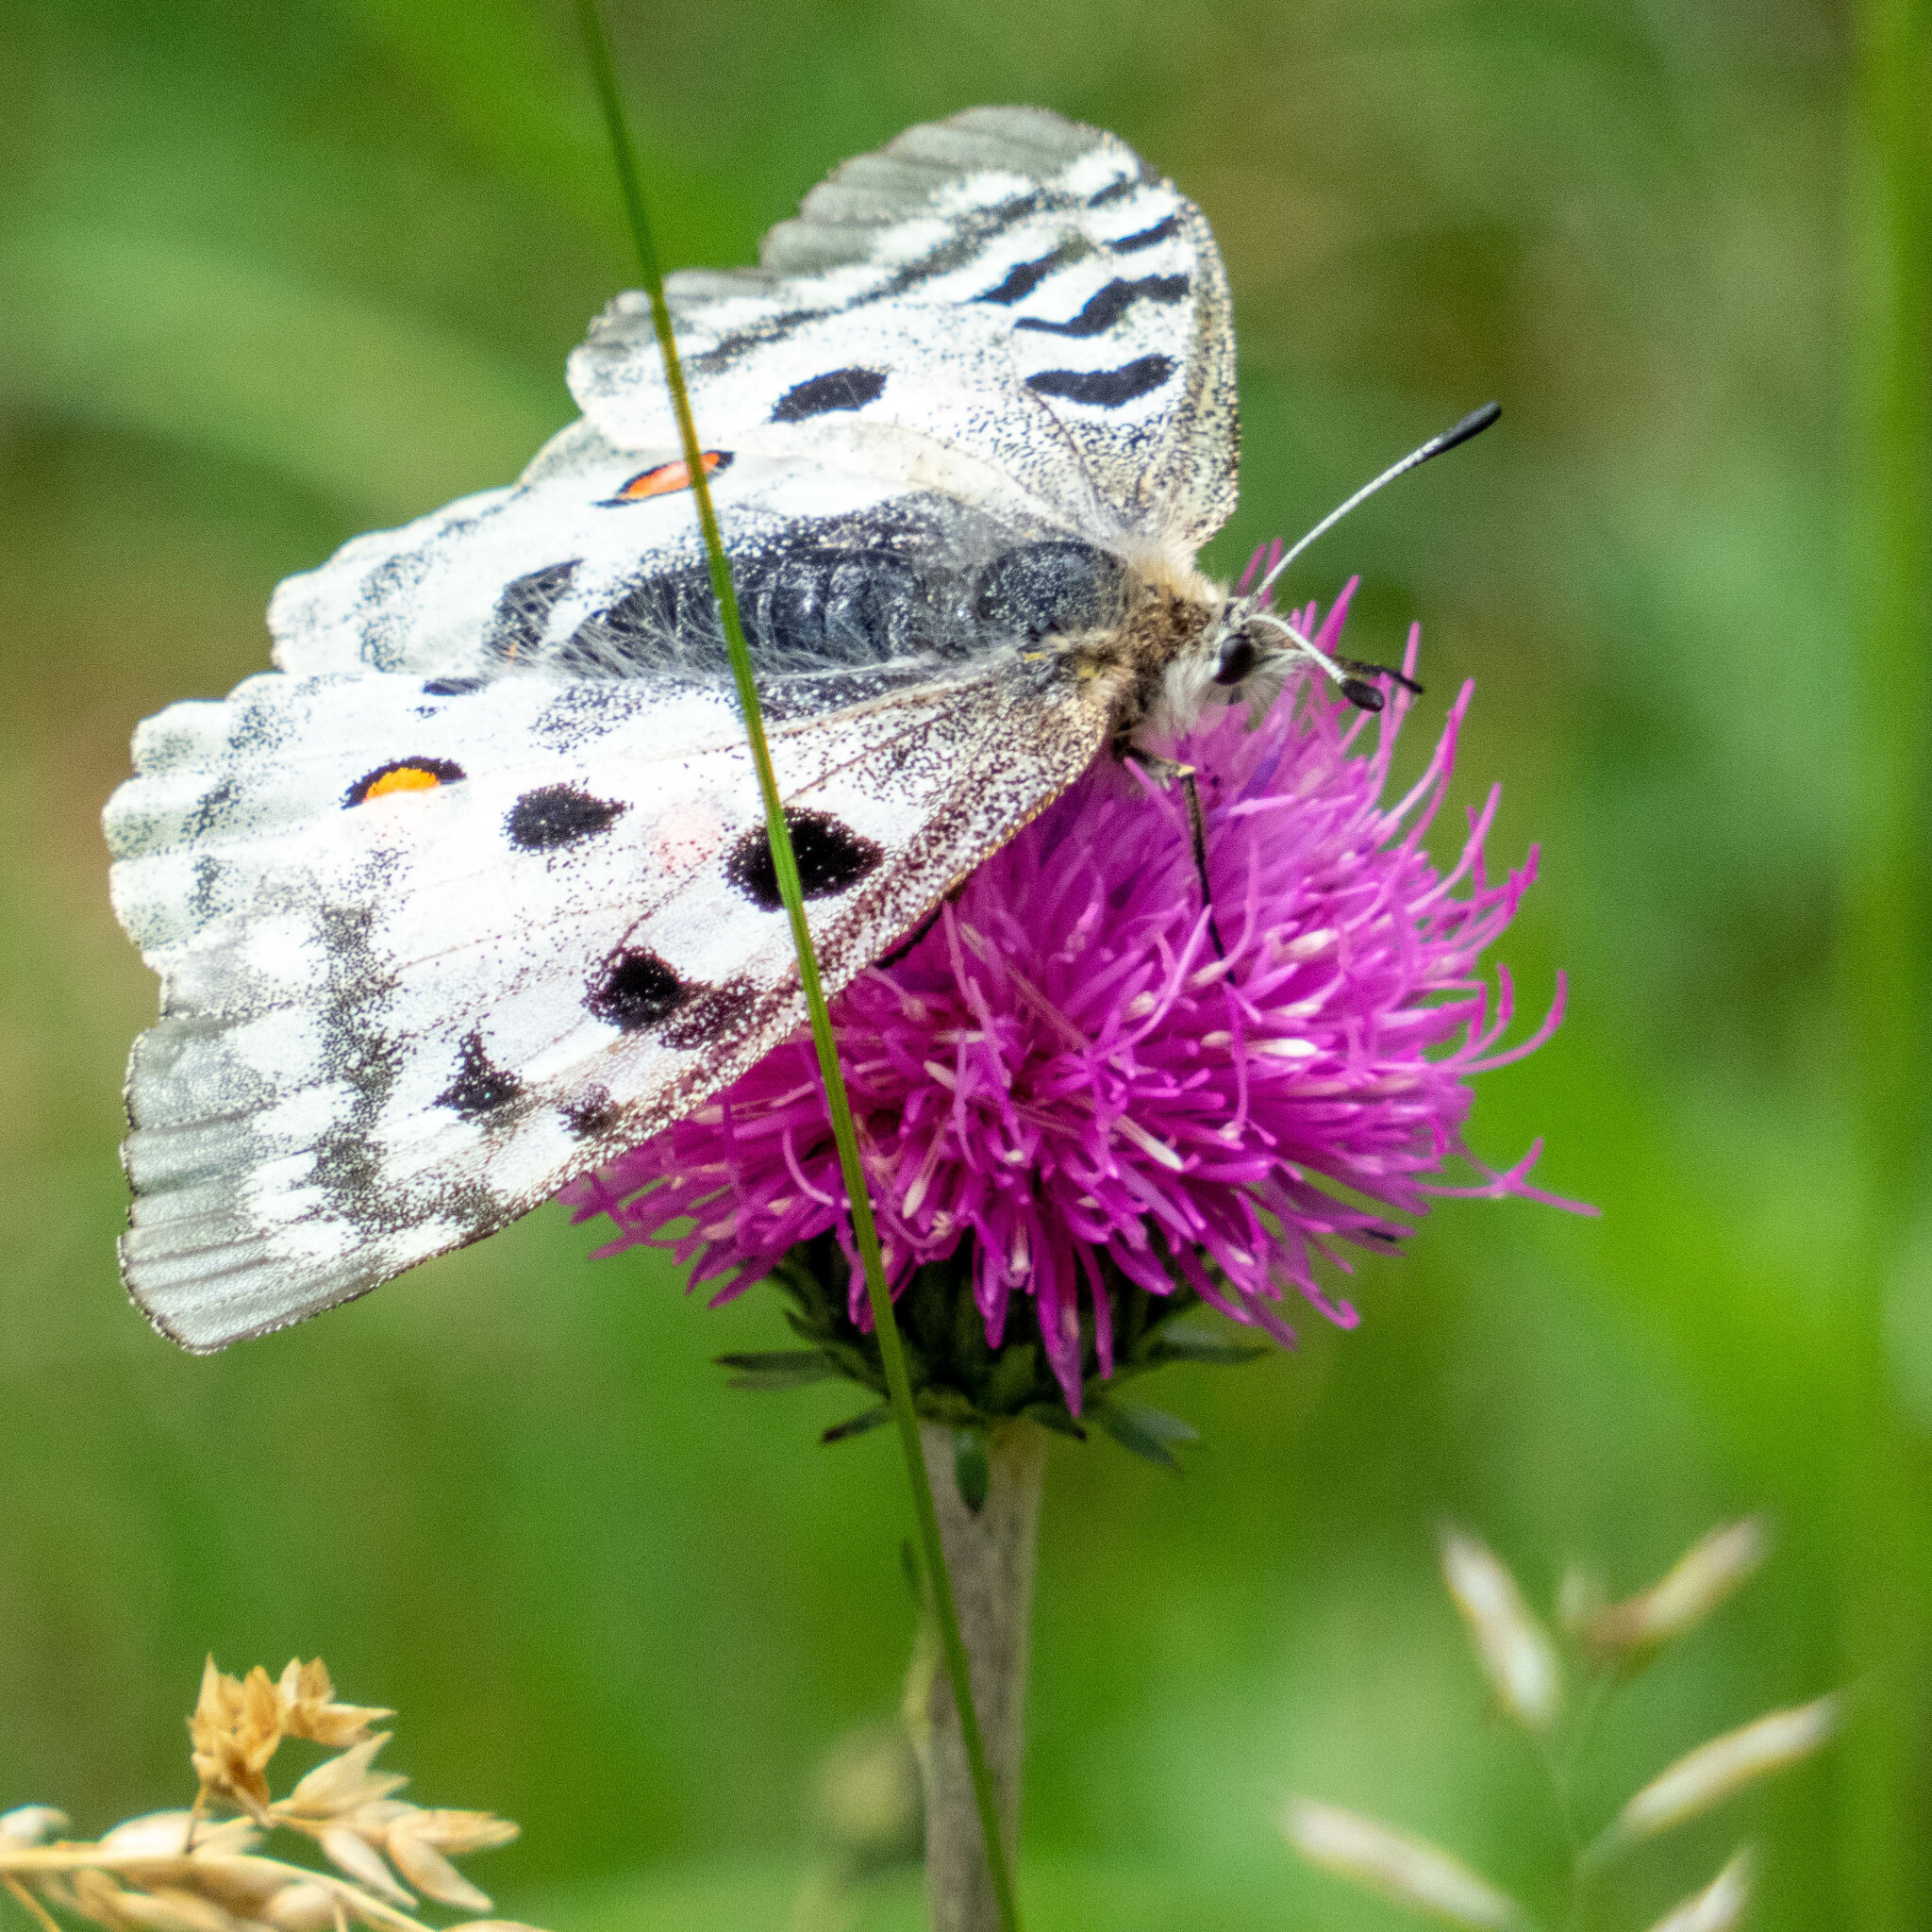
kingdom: Animalia
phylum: Arthropoda
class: Insecta
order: Lepidoptera
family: Papilionidae
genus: Parnassius
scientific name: Parnassius apollo
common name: Apollo
